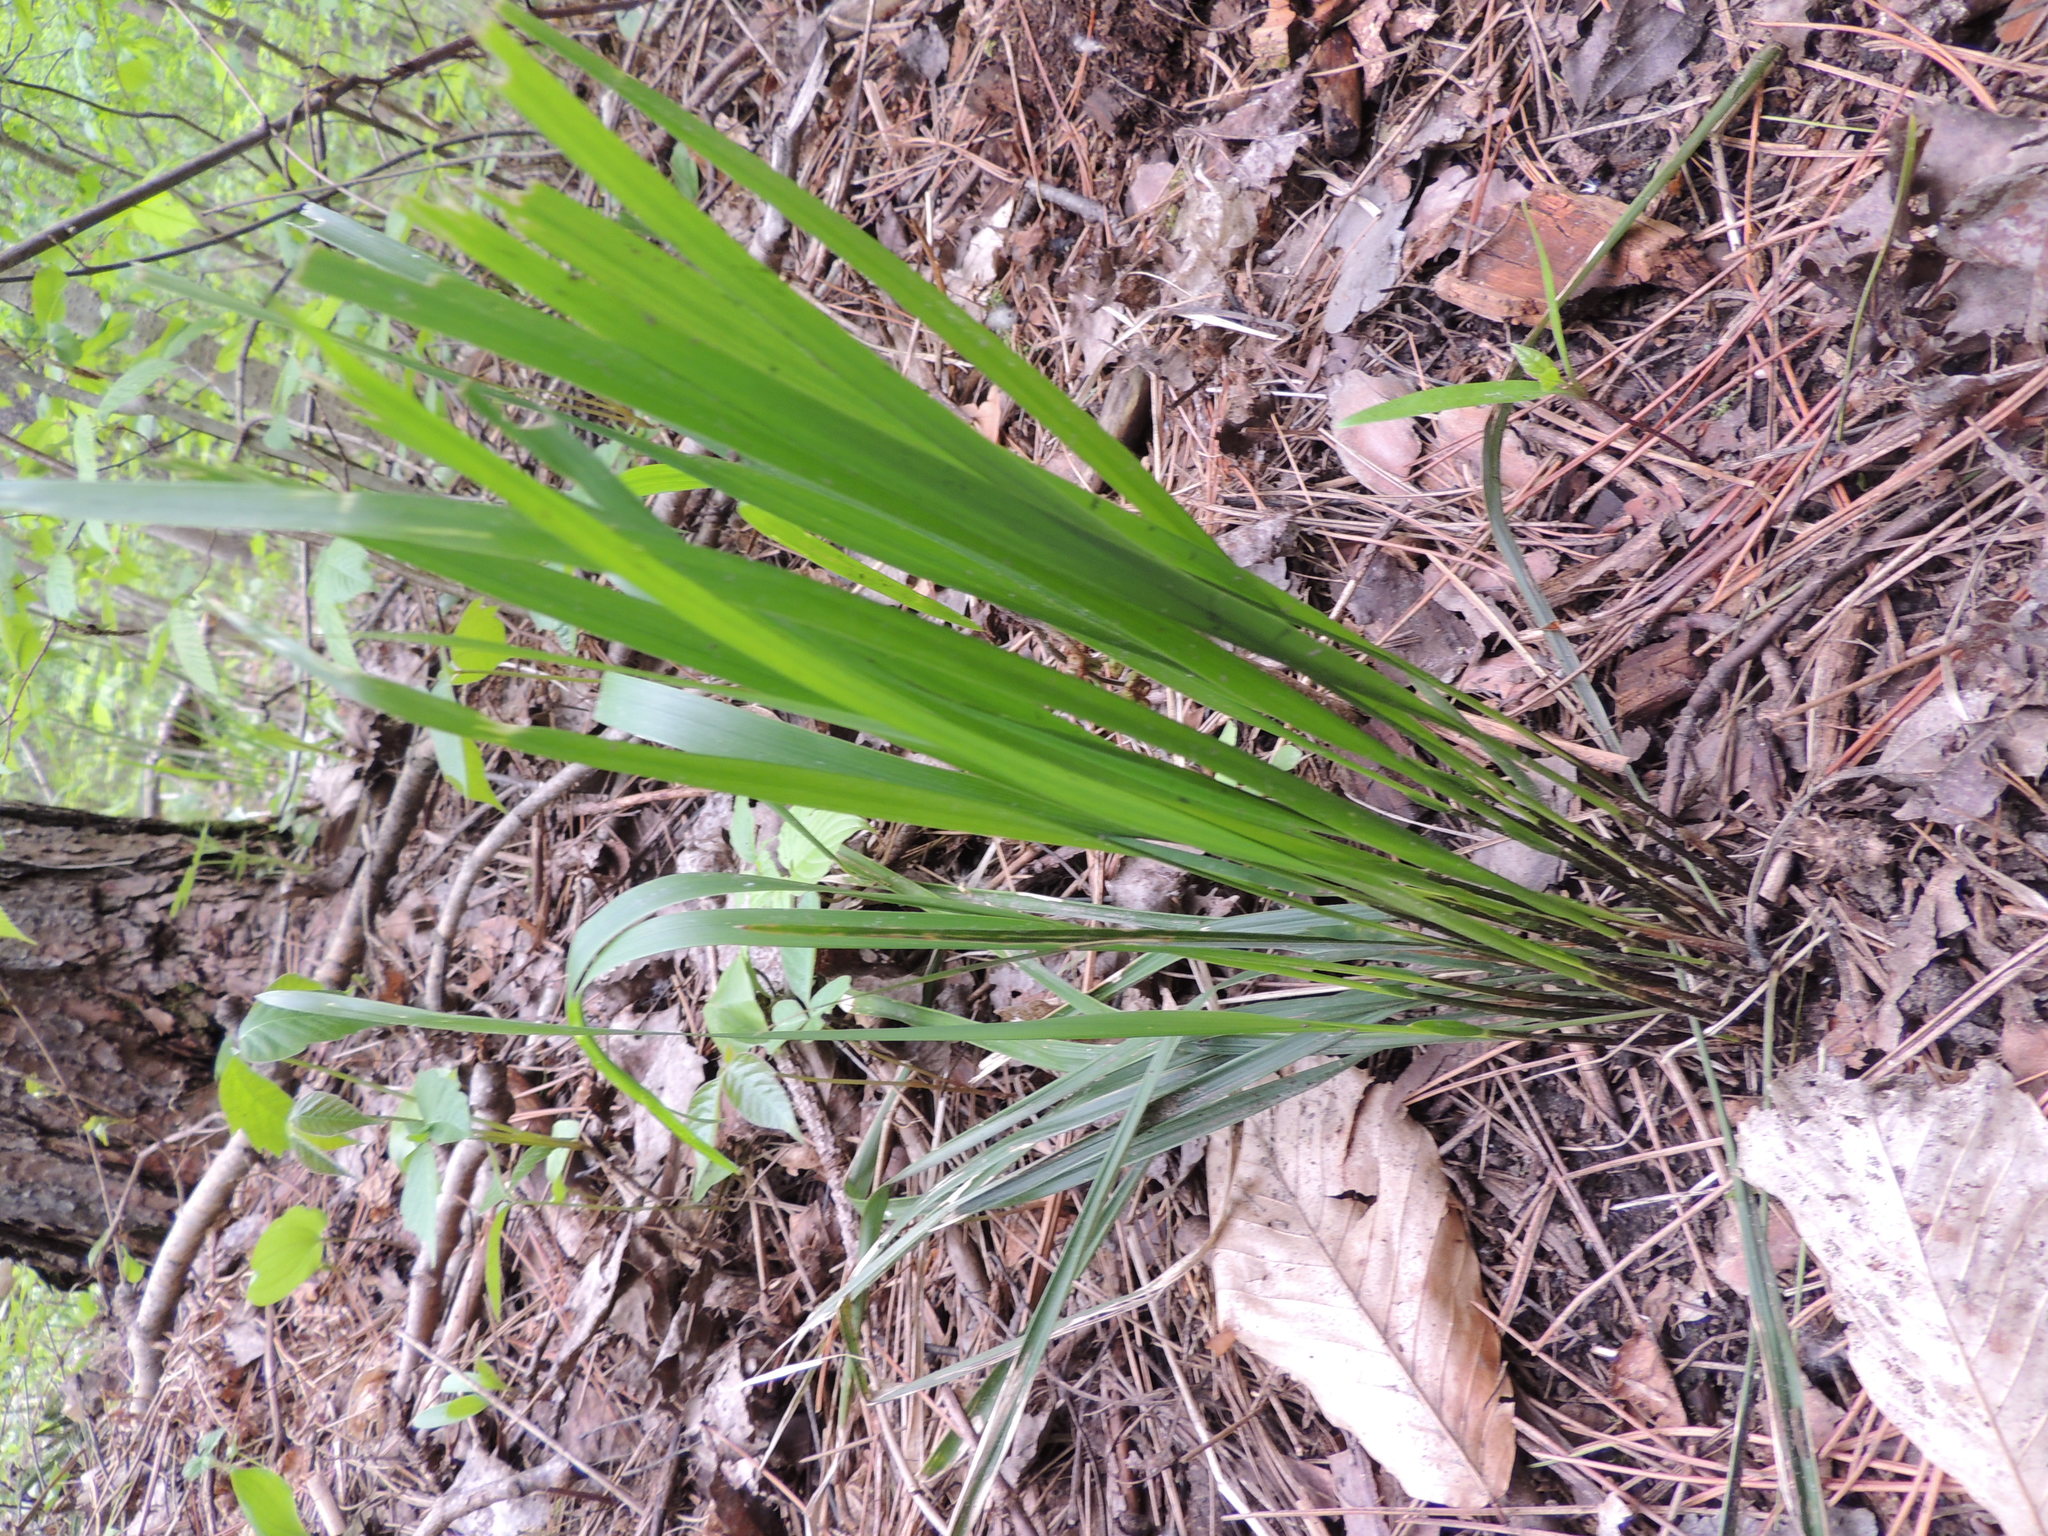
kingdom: Plantae
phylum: Tracheophyta
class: Liliopsida
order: Poales
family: Poaceae
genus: Schizachne
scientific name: Schizachne purpurascens
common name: False melic
